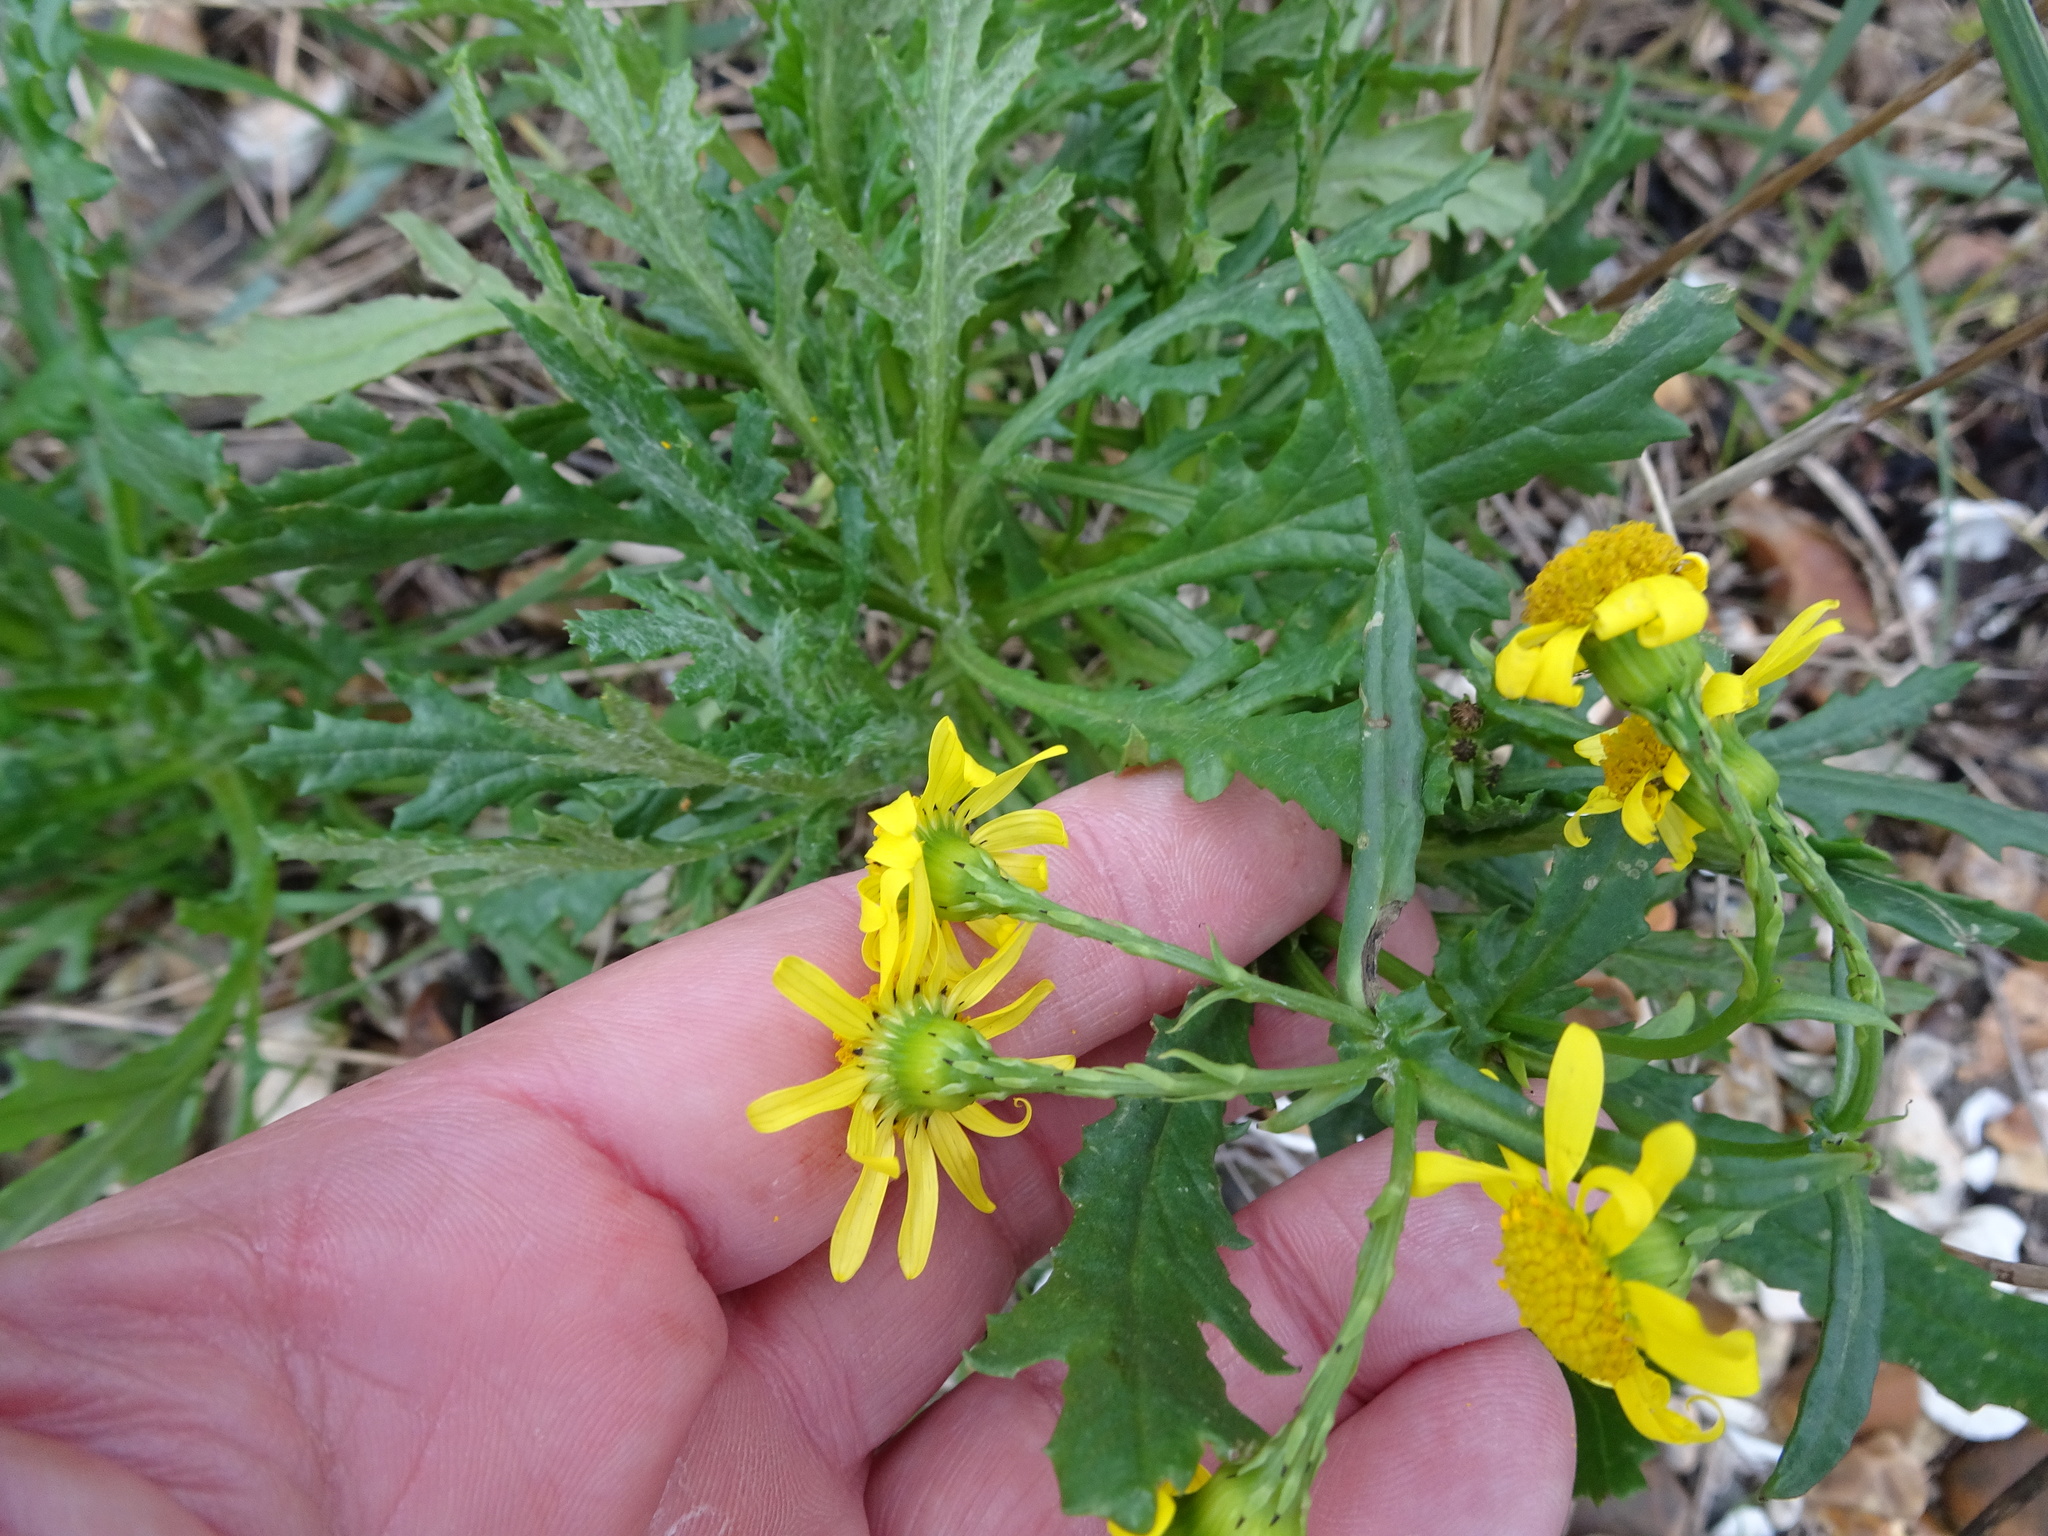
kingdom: Plantae
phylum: Tracheophyta
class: Magnoliopsida
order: Asterales
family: Asteraceae
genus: Senecio
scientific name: Senecio squalidus
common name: Oxford ragwort
